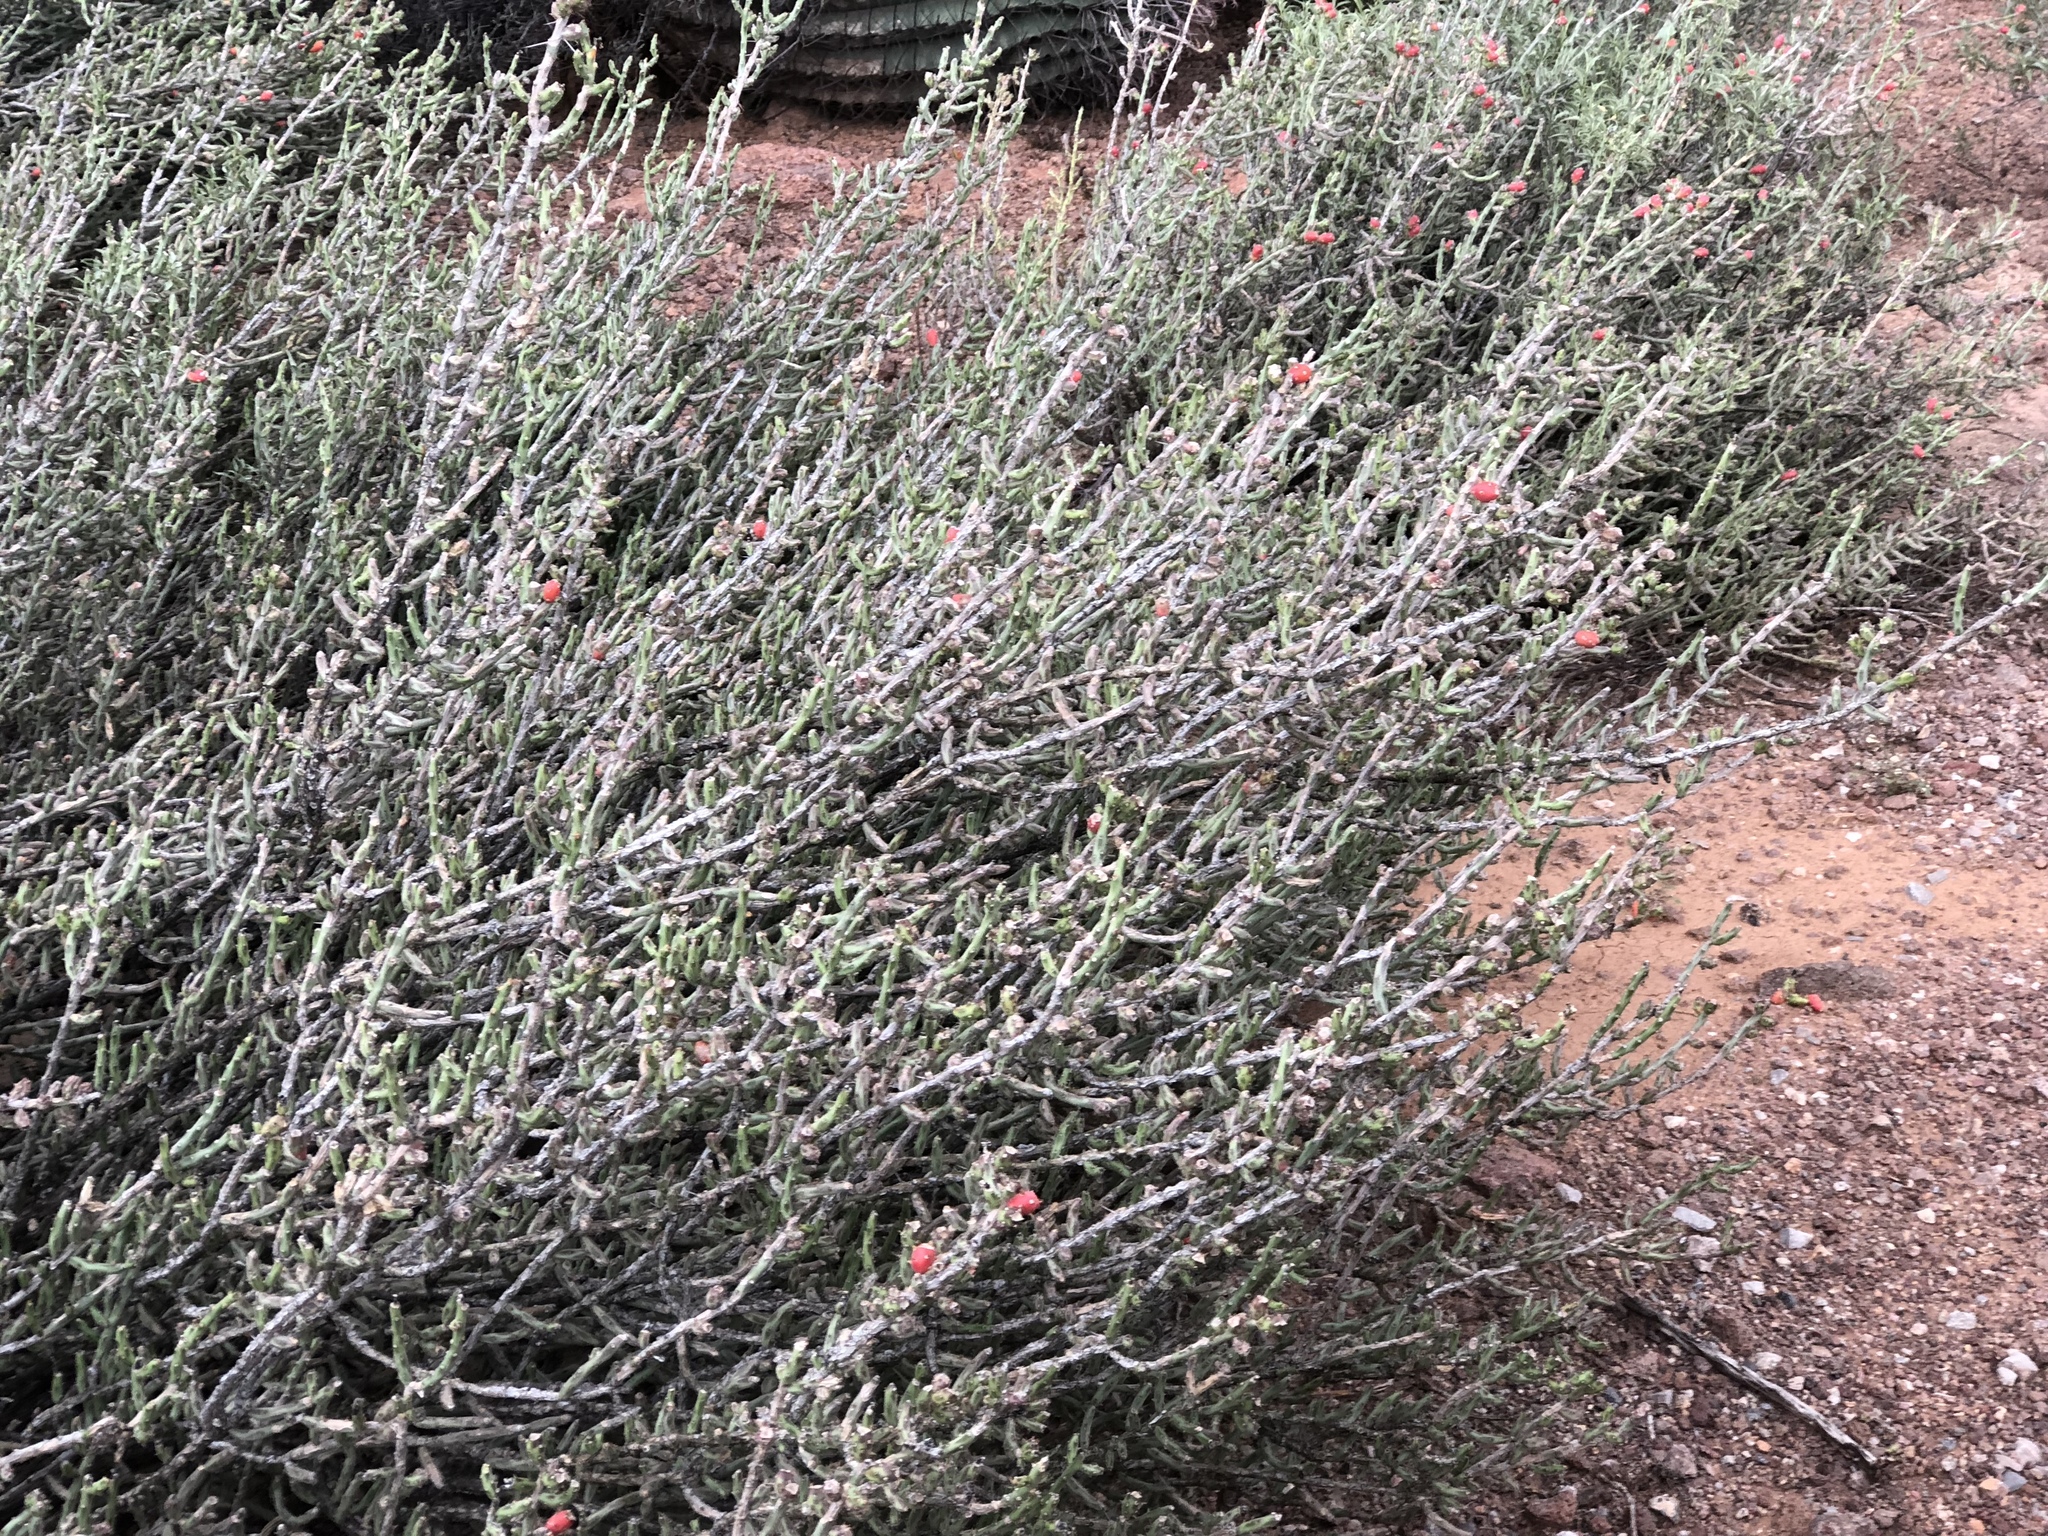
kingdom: Plantae
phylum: Tracheophyta
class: Magnoliopsida
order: Caryophyllales
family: Cactaceae
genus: Cylindropuntia
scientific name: Cylindropuntia leptocaulis
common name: Christmas cactus
